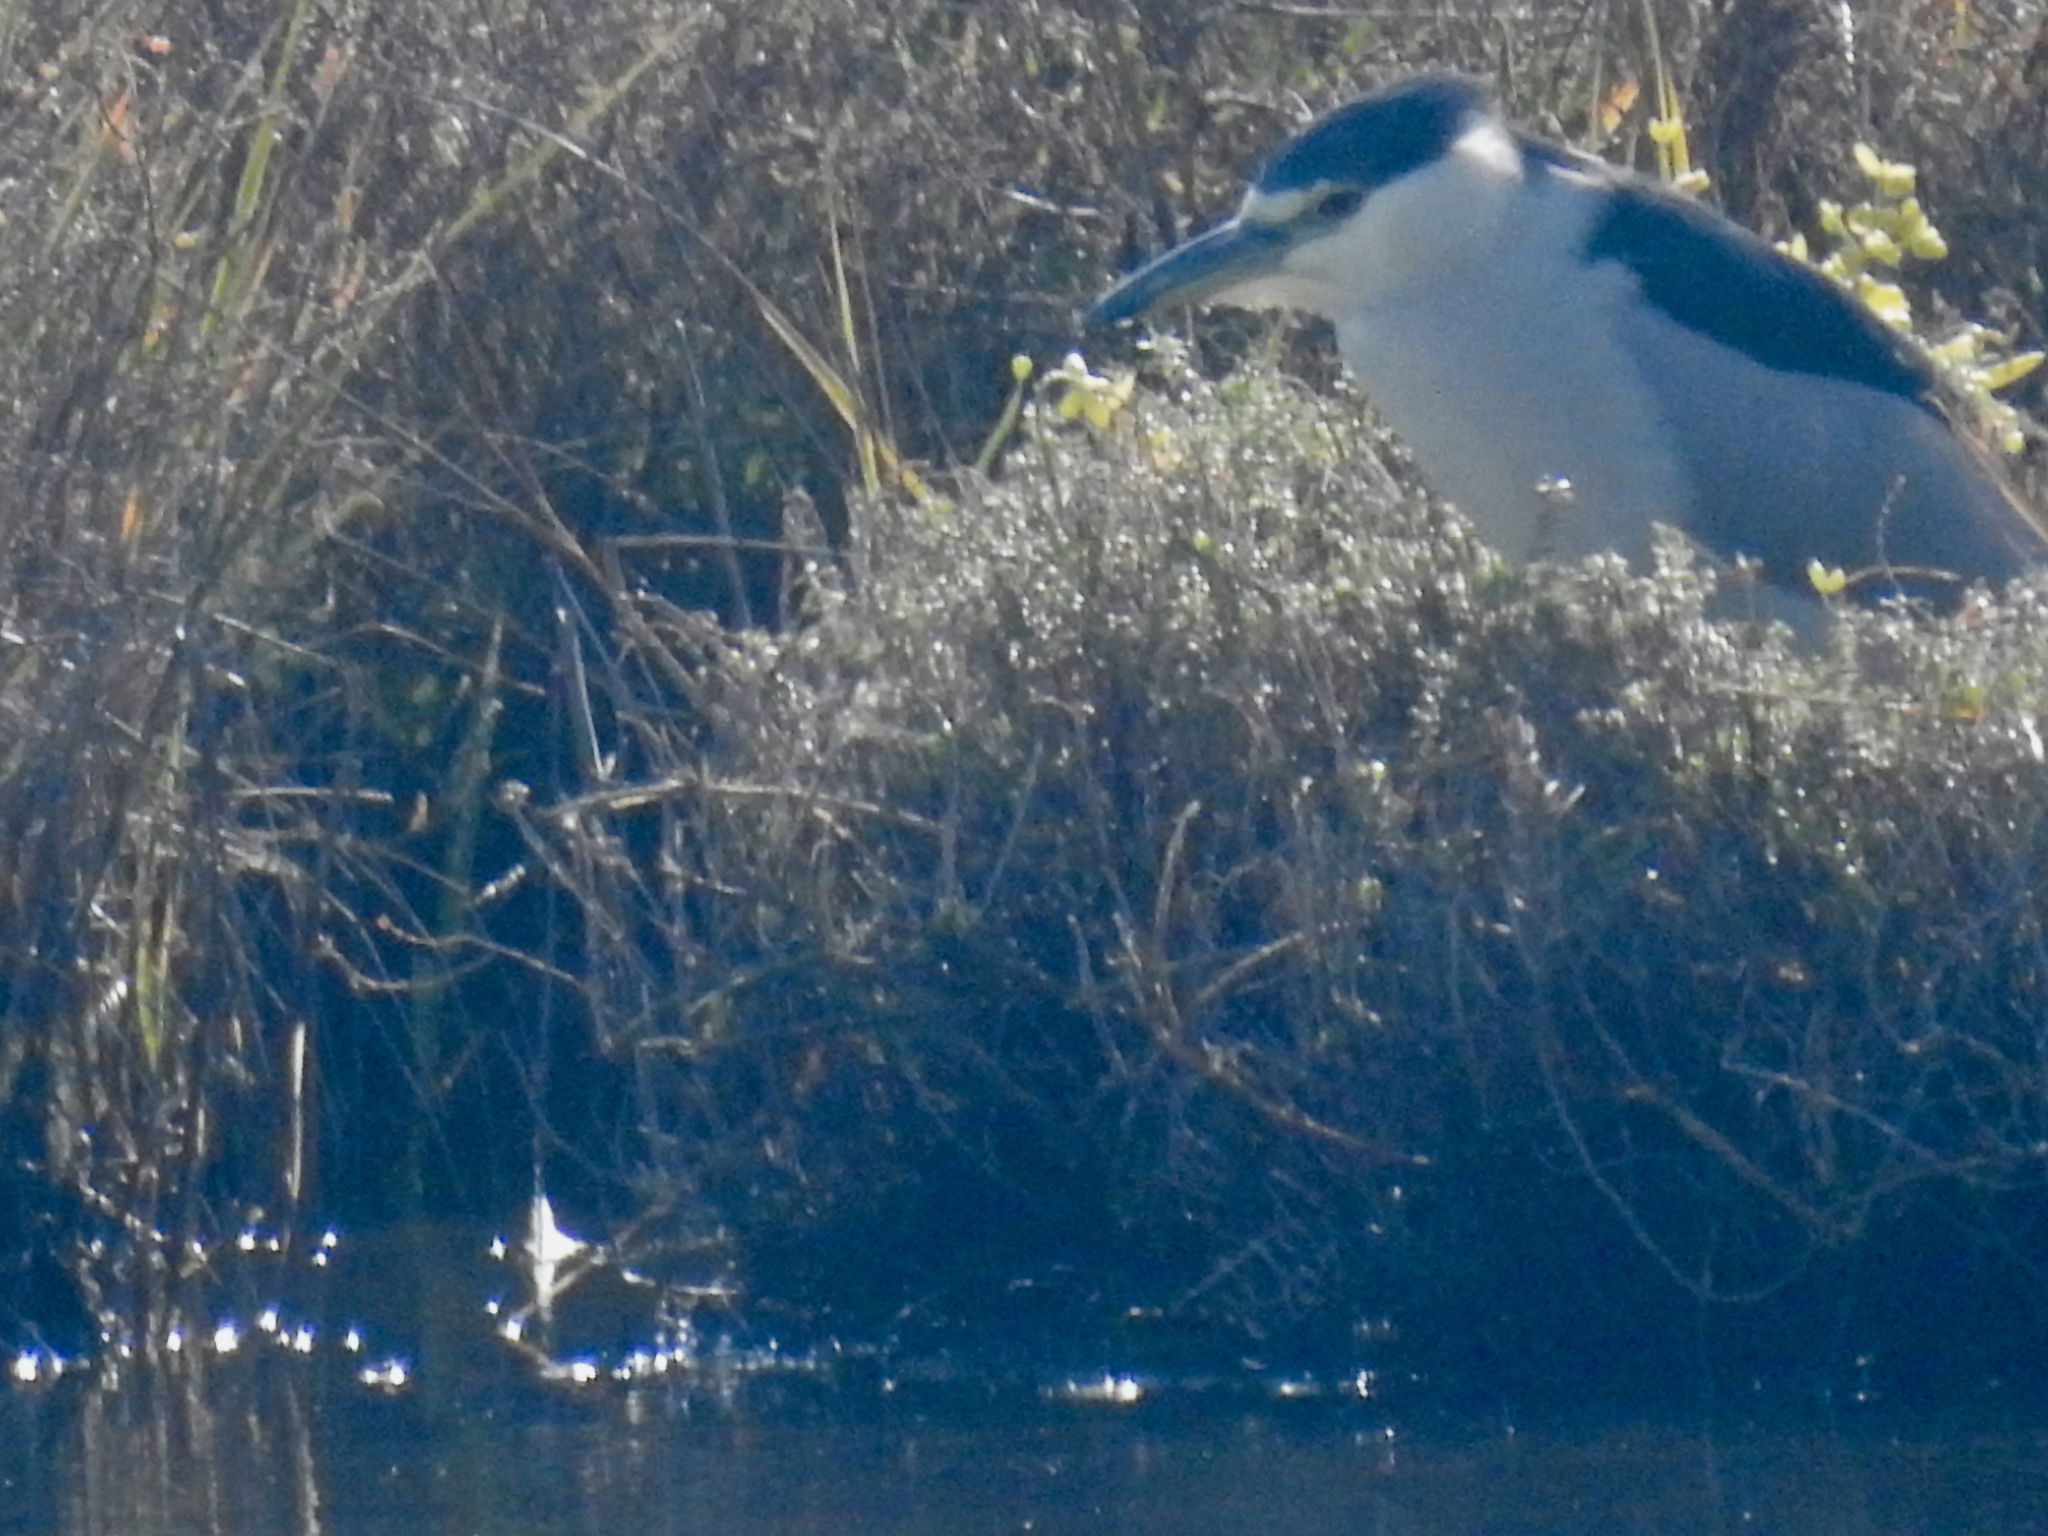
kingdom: Animalia
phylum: Chordata
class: Aves
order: Pelecaniformes
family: Ardeidae
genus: Nycticorax
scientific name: Nycticorax nycticorax
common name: Black-crowned night heron
